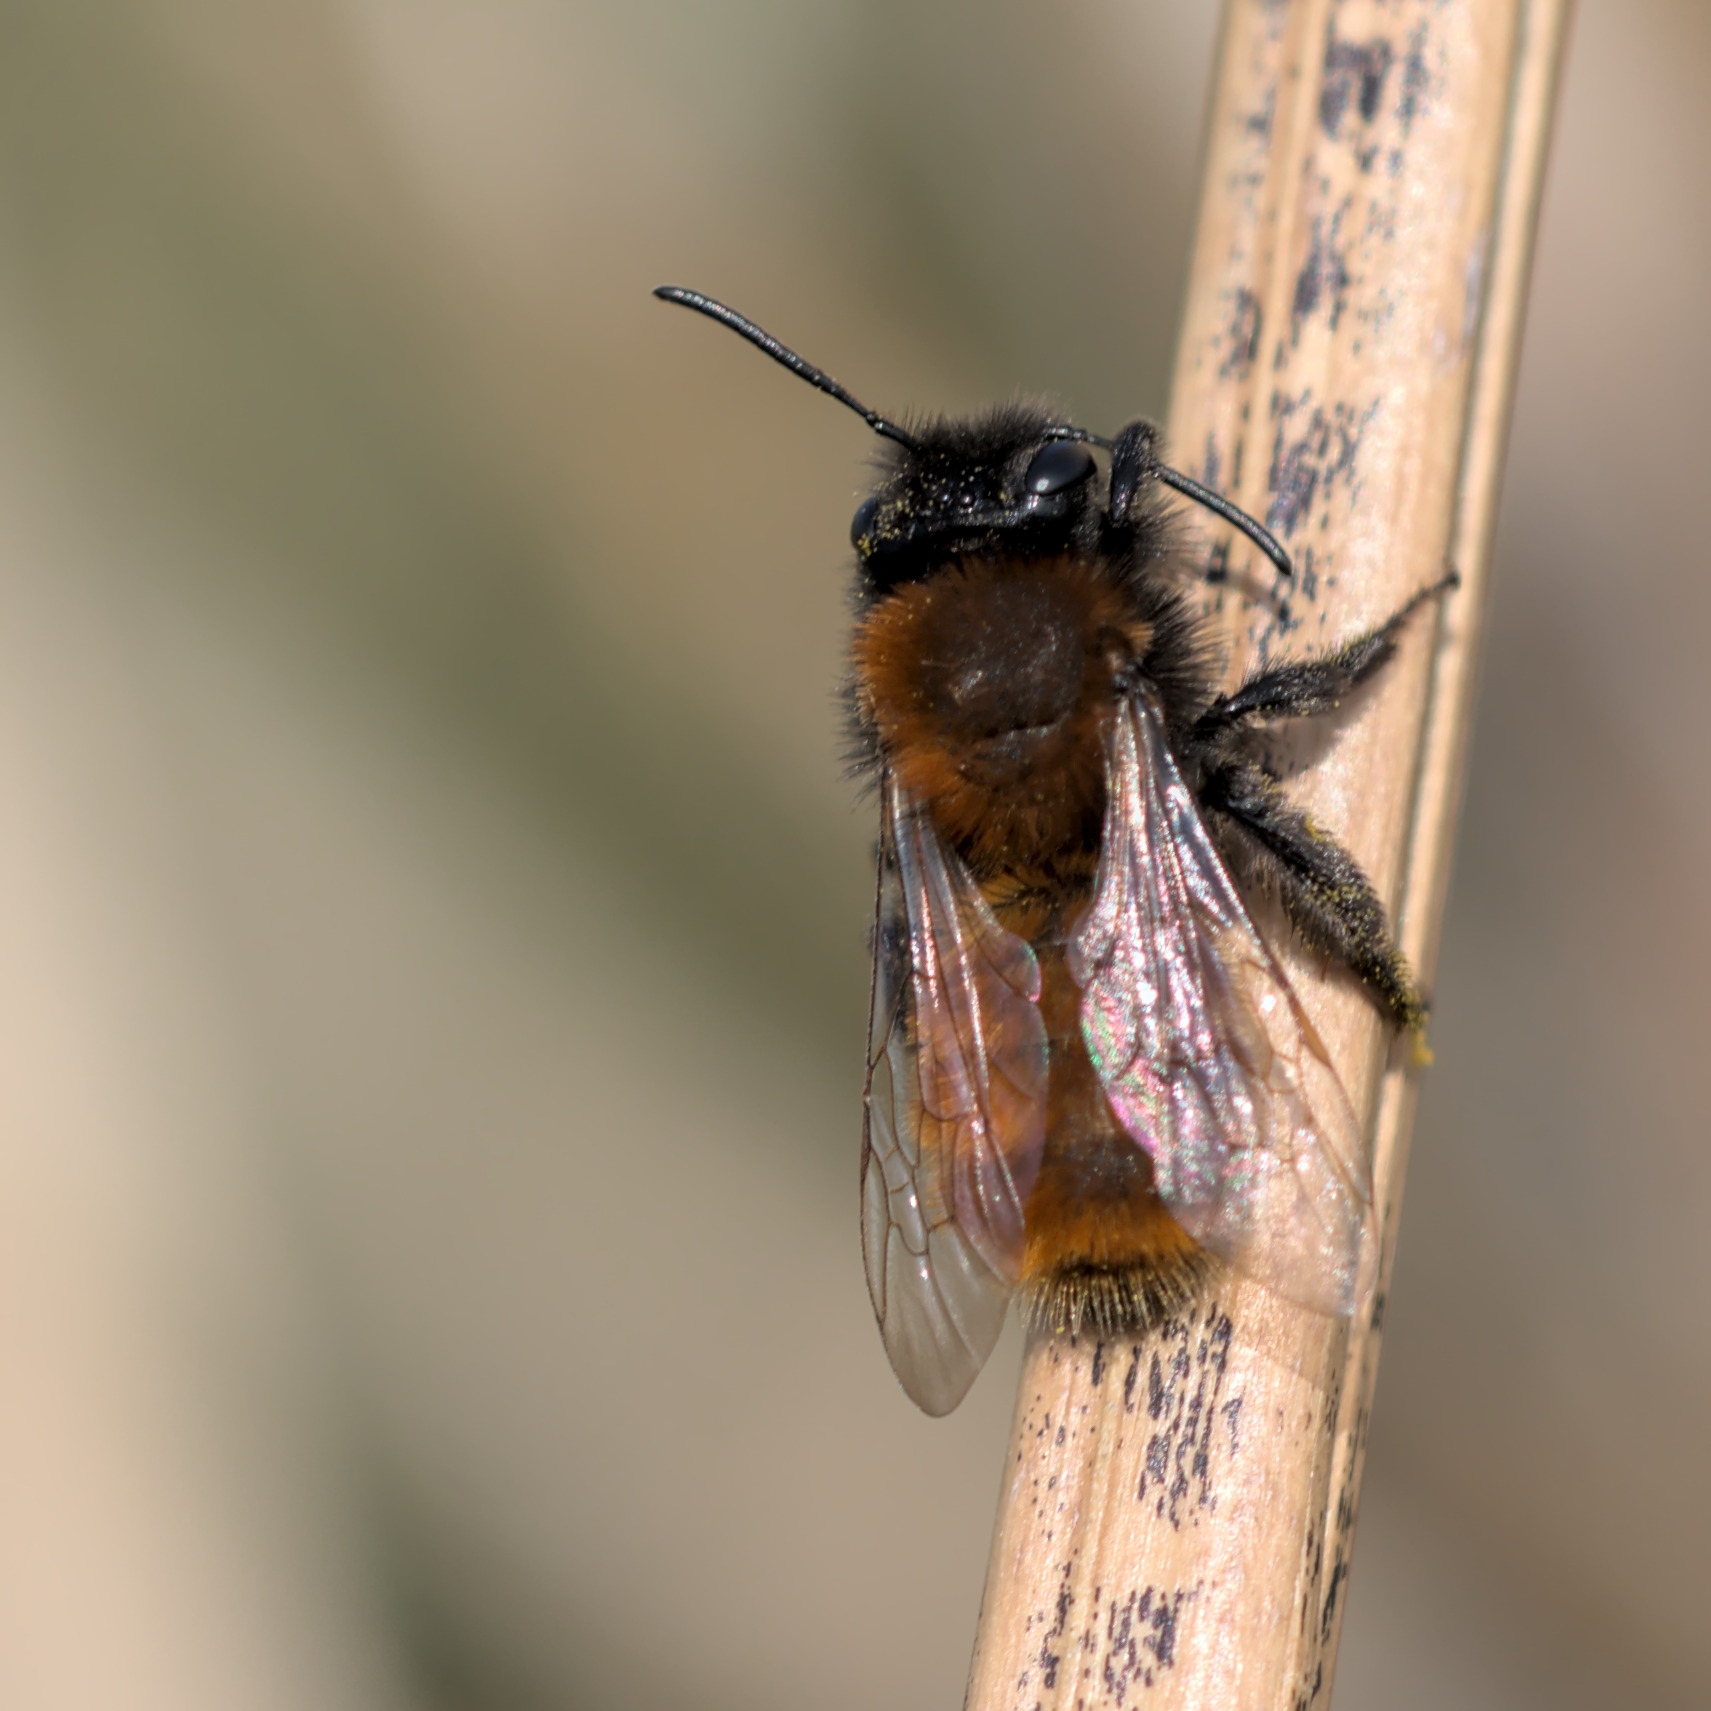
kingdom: Animalia
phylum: Arthropoda
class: Insecta
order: Hymenoptera
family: Andrenidae
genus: Andrena
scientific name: Andrena fulva
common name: Tawny mining bee
